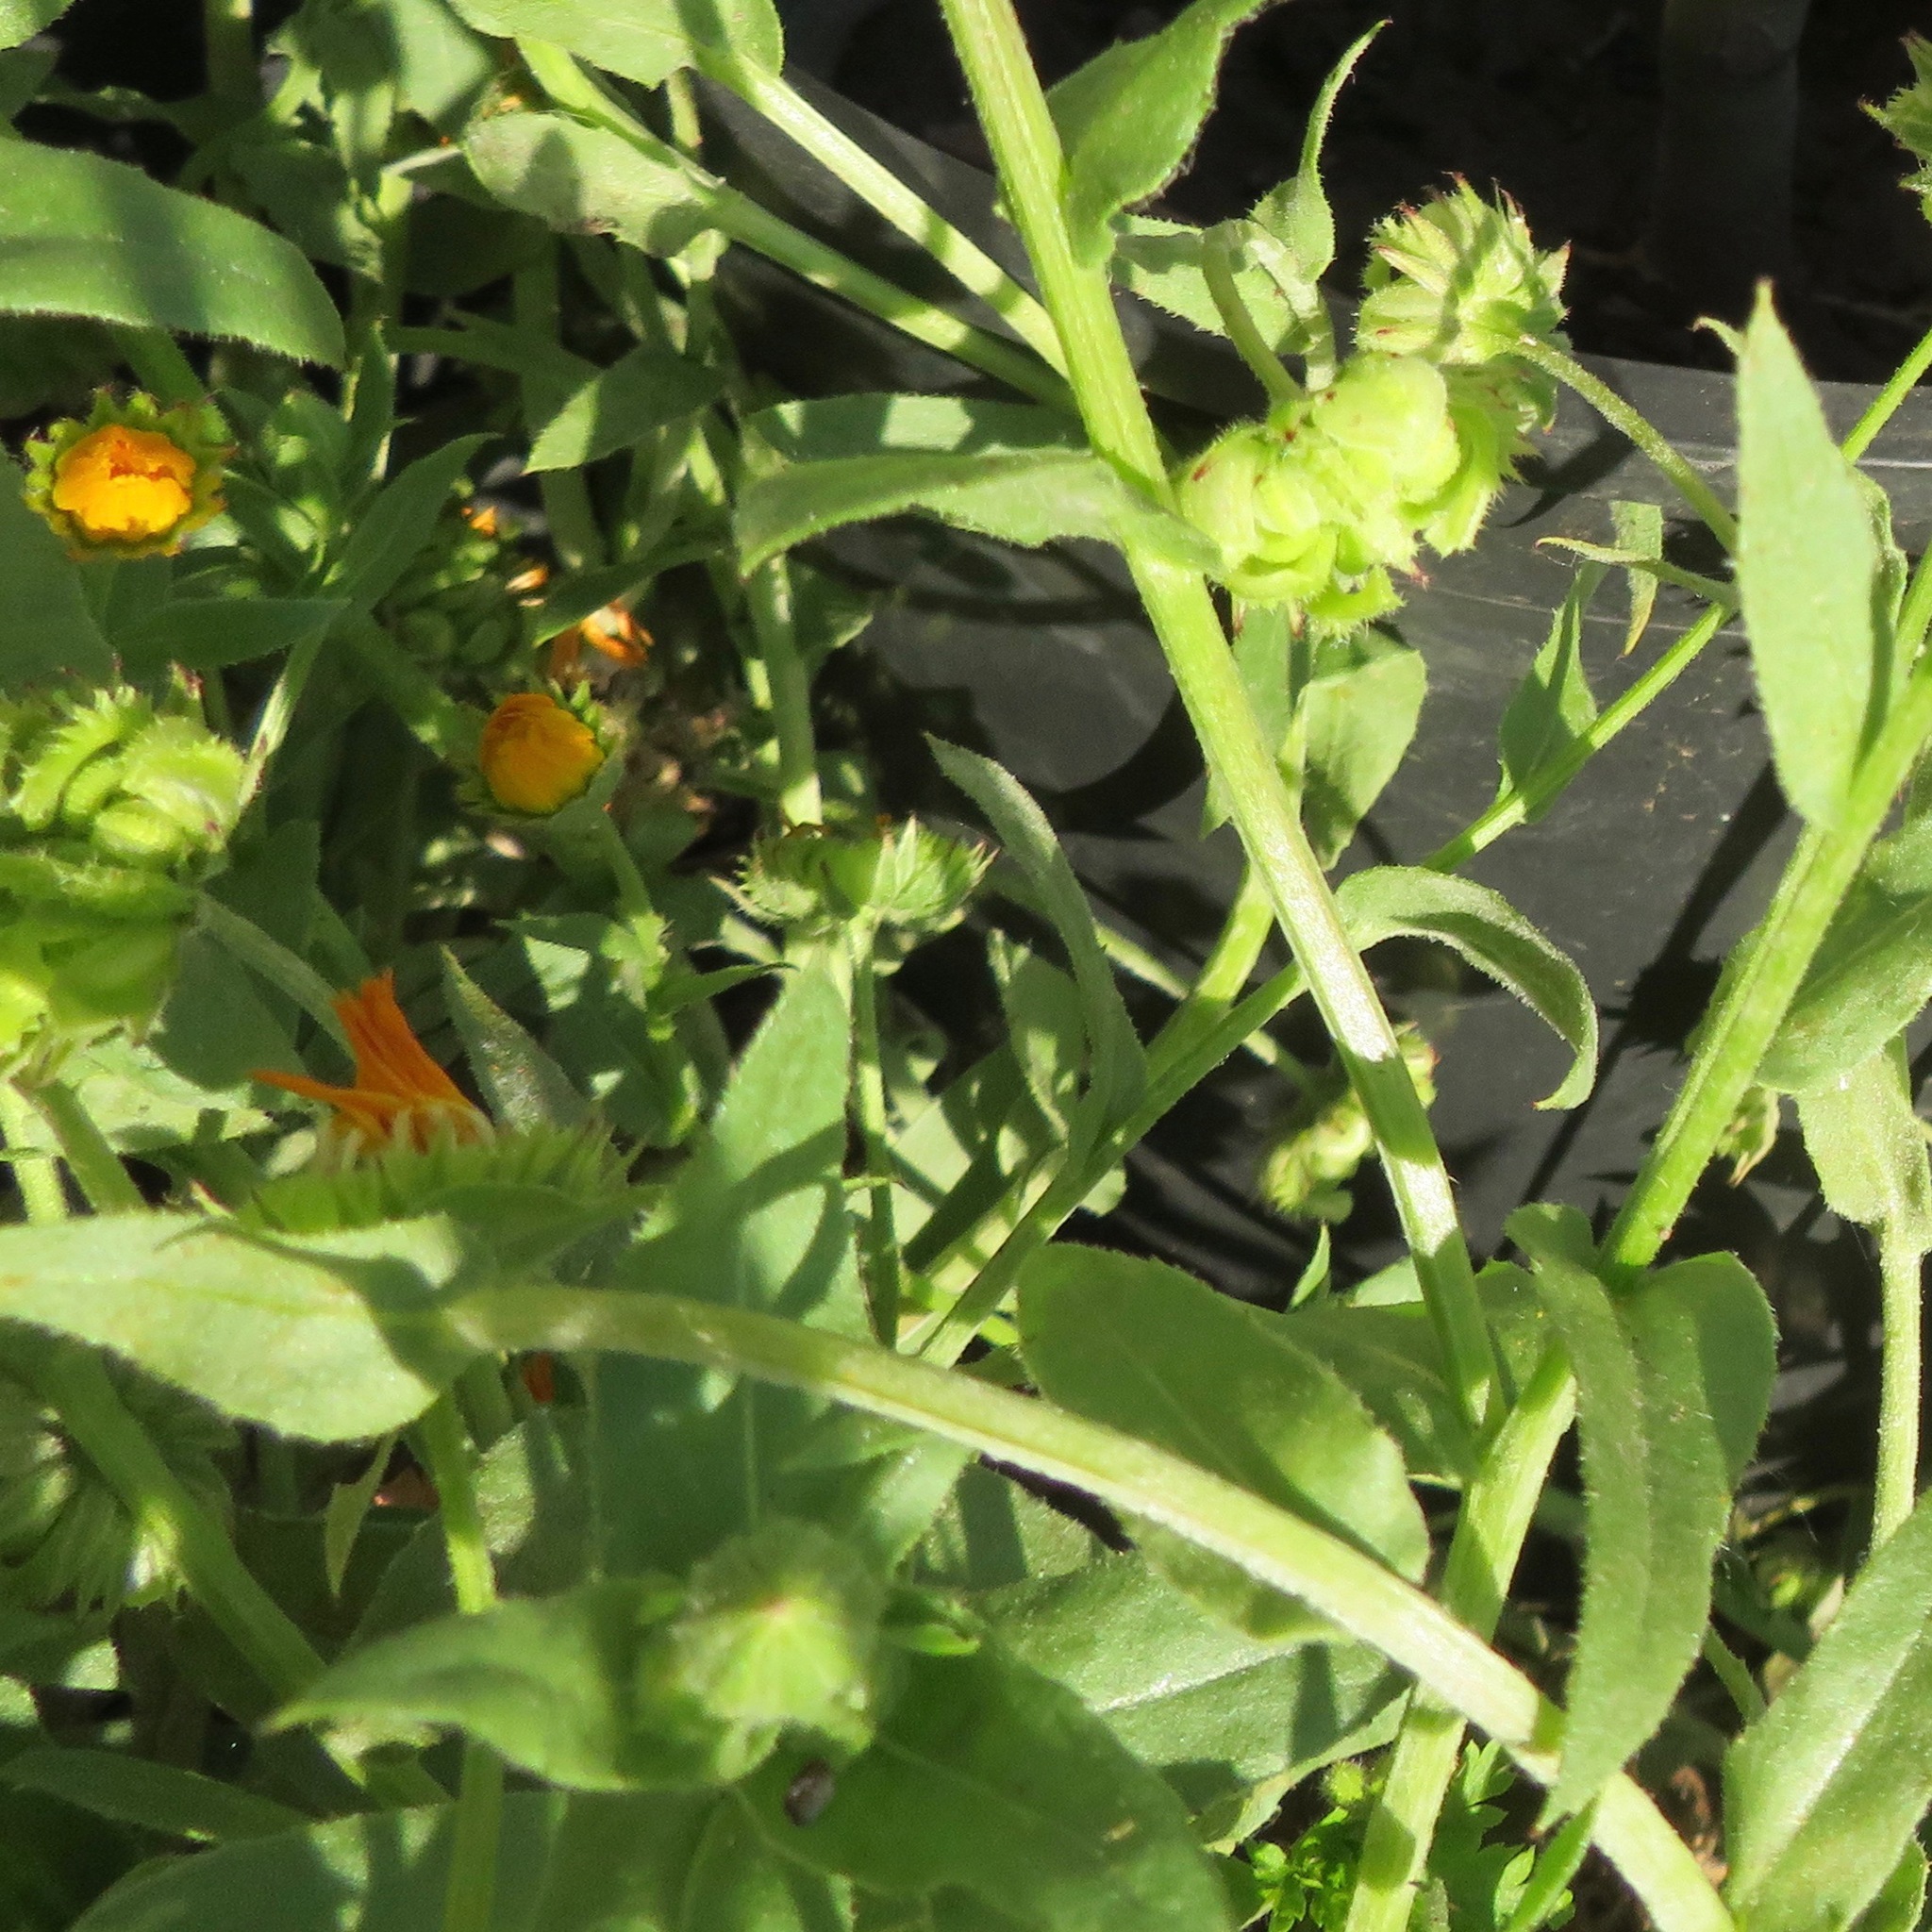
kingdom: Plantae
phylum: Tracheophyta
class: Magnoliopsida
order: Asterales
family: Asteraceae
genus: Calendula
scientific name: Calendula arvensis
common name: Field marigold
